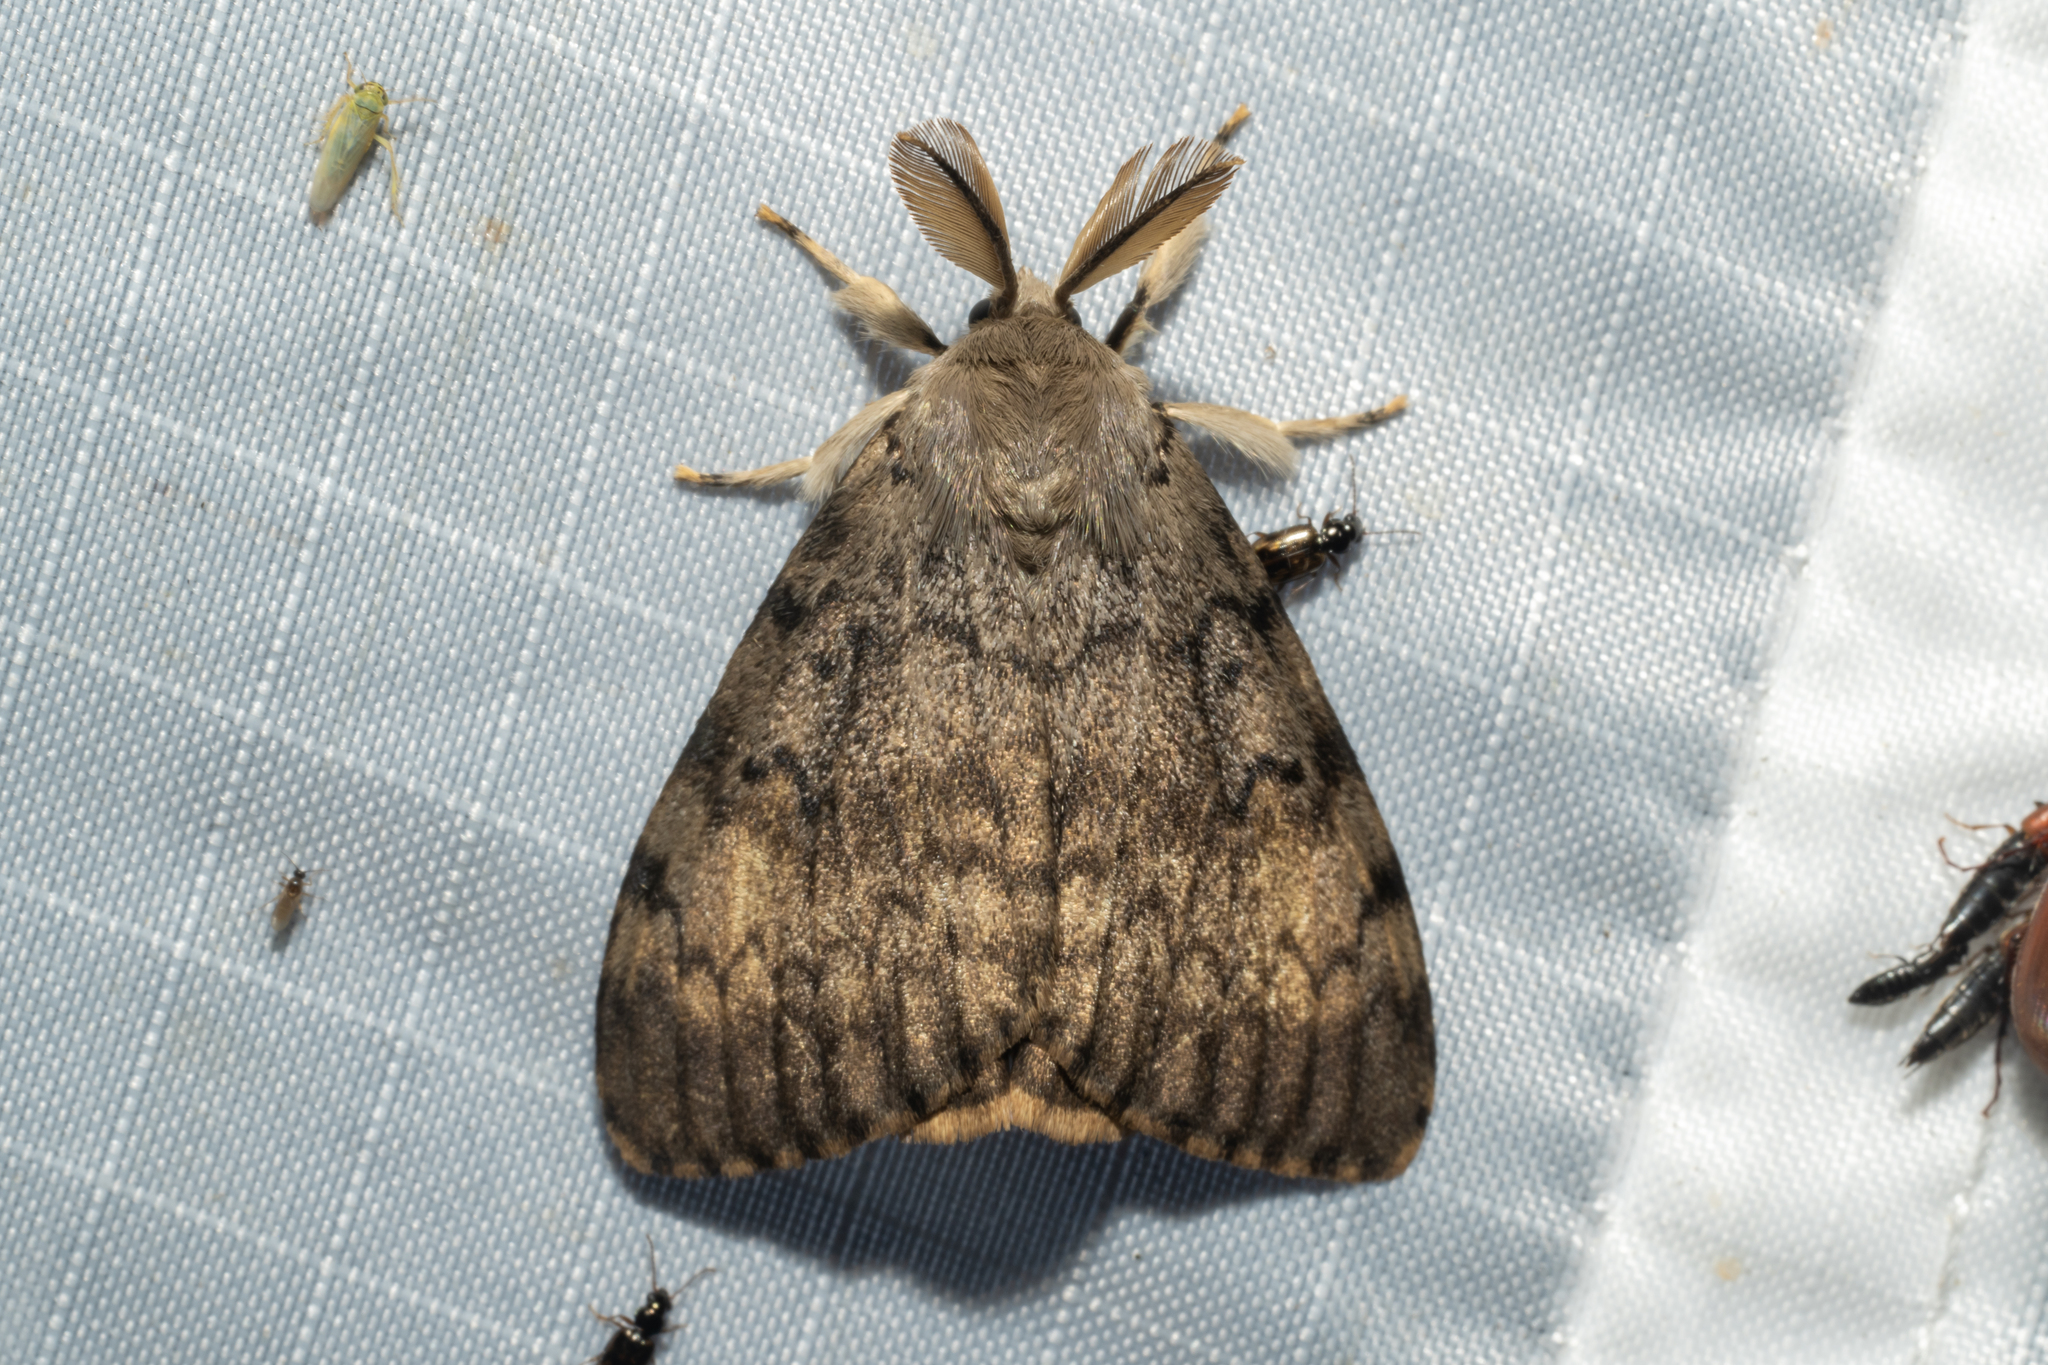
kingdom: Animalia
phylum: Arthropoda
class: Insecta
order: Lepidoptera
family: Erebidae
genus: Lymantria
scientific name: Lymantria dispar
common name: Gypsy moth
